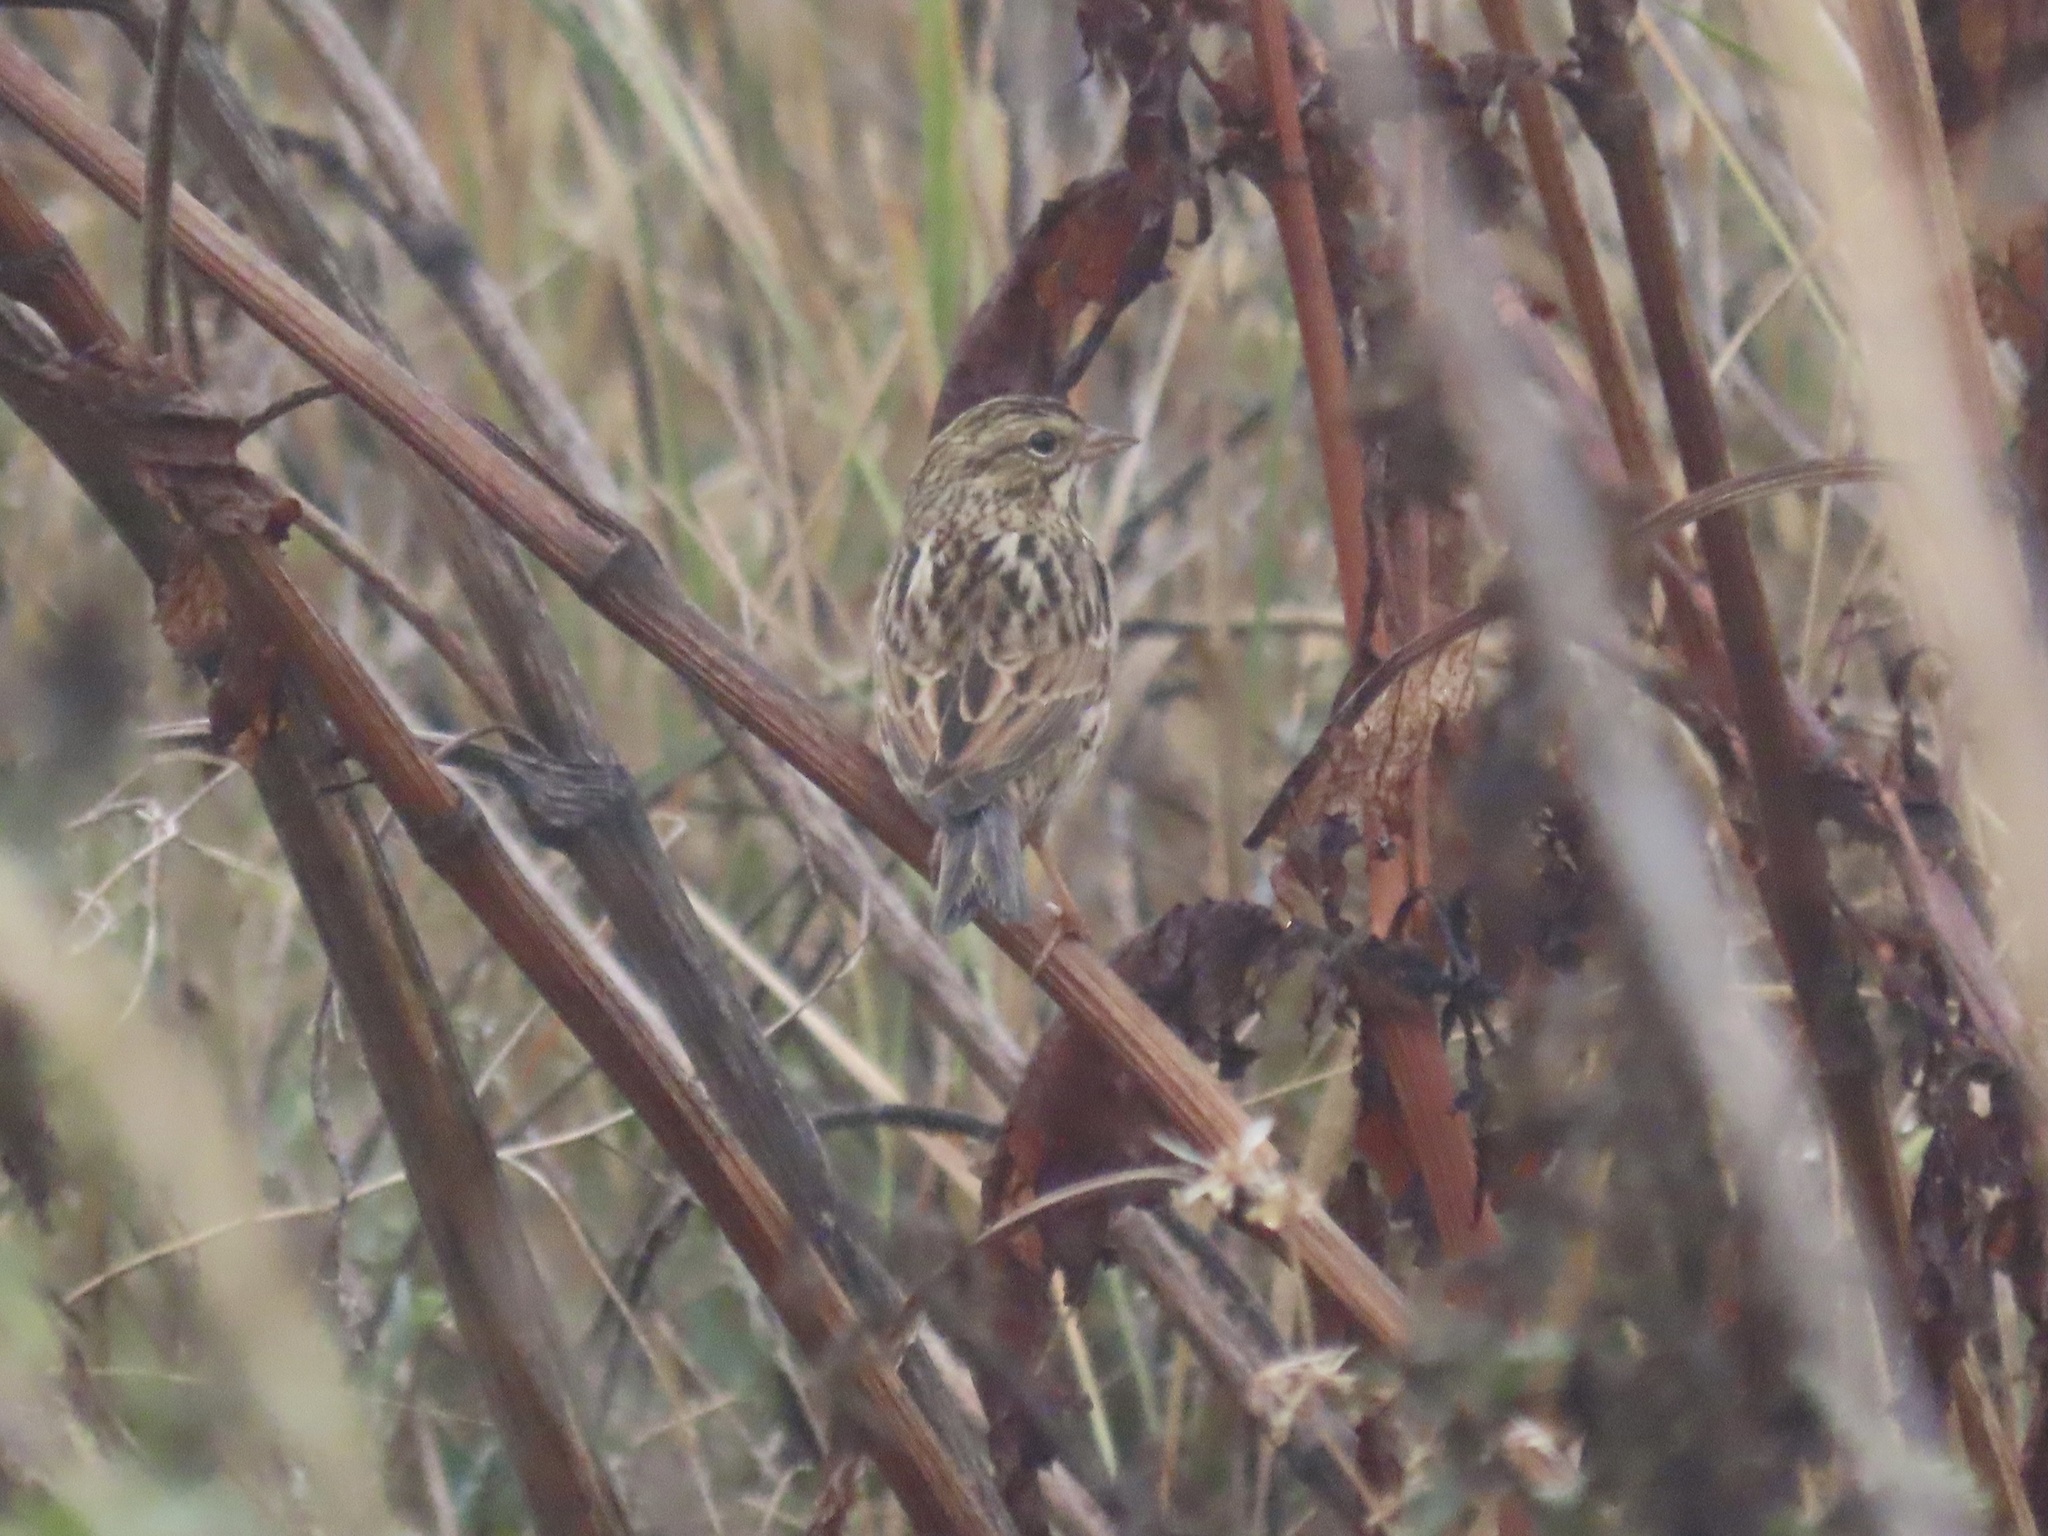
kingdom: Animalia
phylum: Chordata
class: Aves
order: Passeriformes
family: Passerellidae
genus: Passerculus
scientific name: Passerculus sandwichensis
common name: Savannah sparrow
